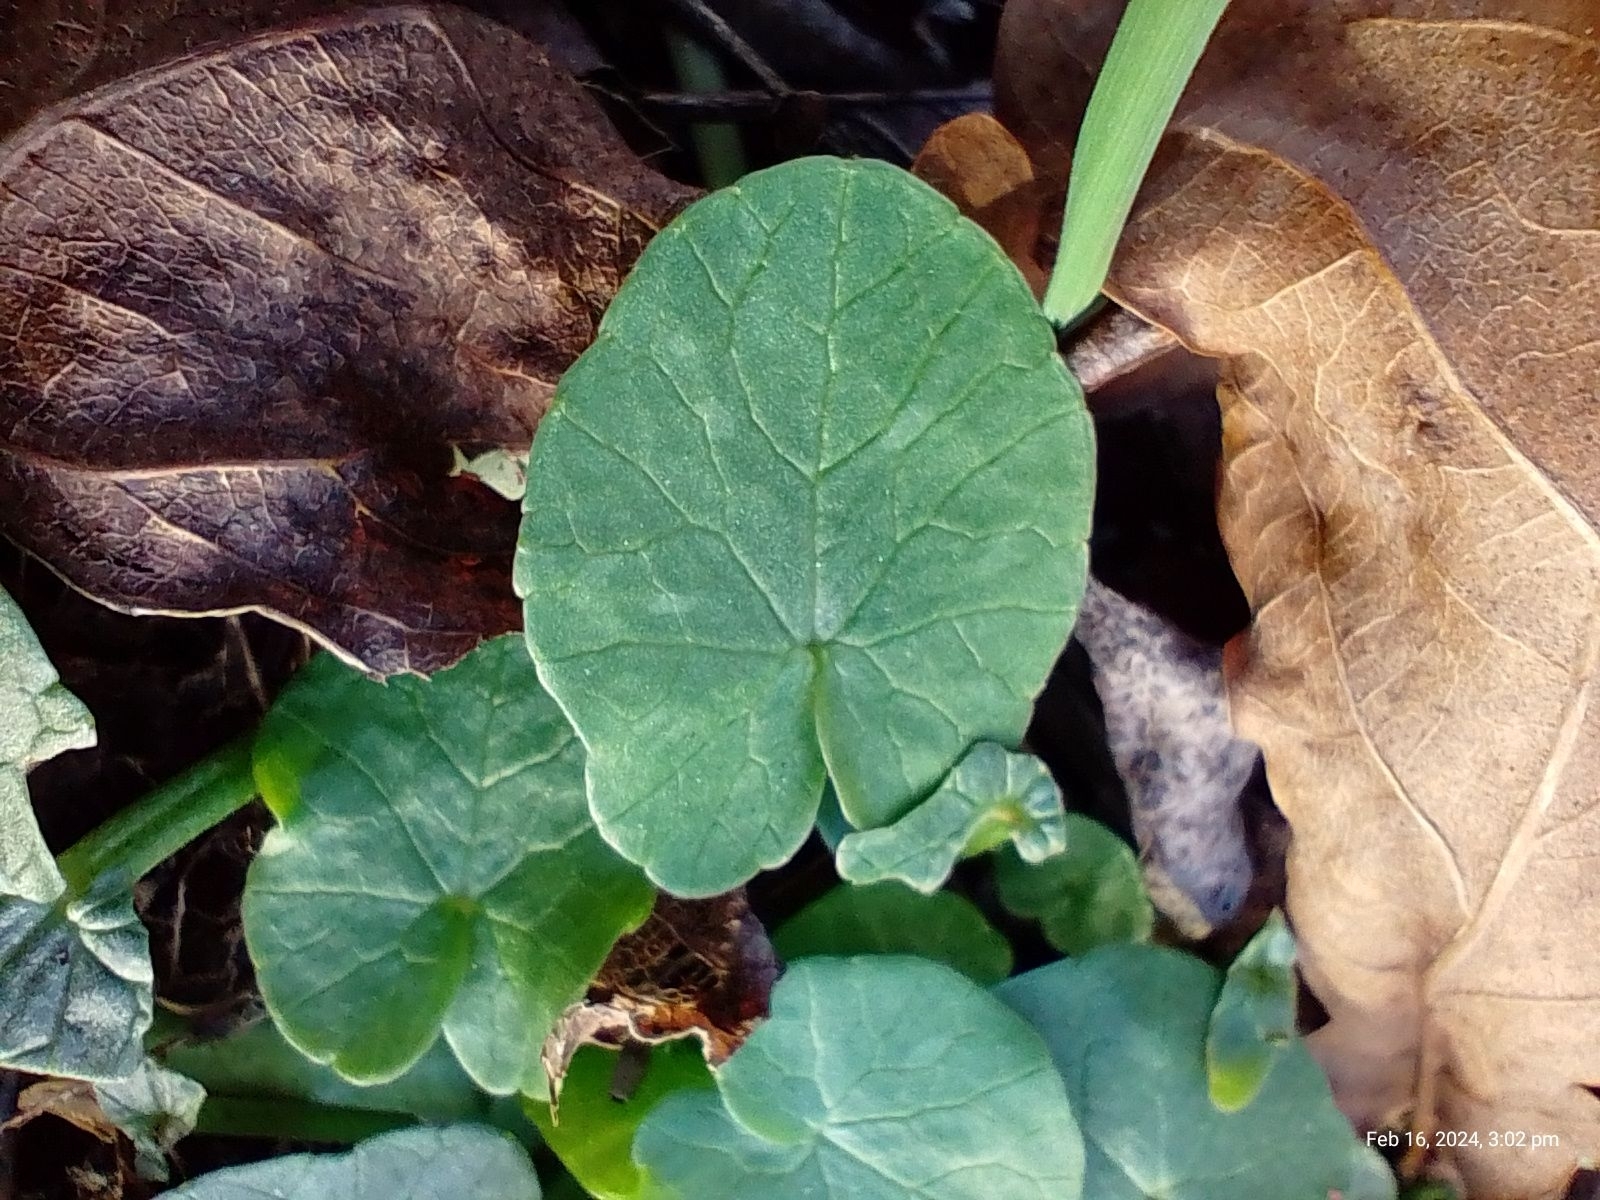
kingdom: Plantae
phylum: Tracheophyta
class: Magnoliopsida
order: Ranunculales
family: Ranunculaceae
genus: Ficaria
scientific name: Ficaria verna
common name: Lesser celandine
